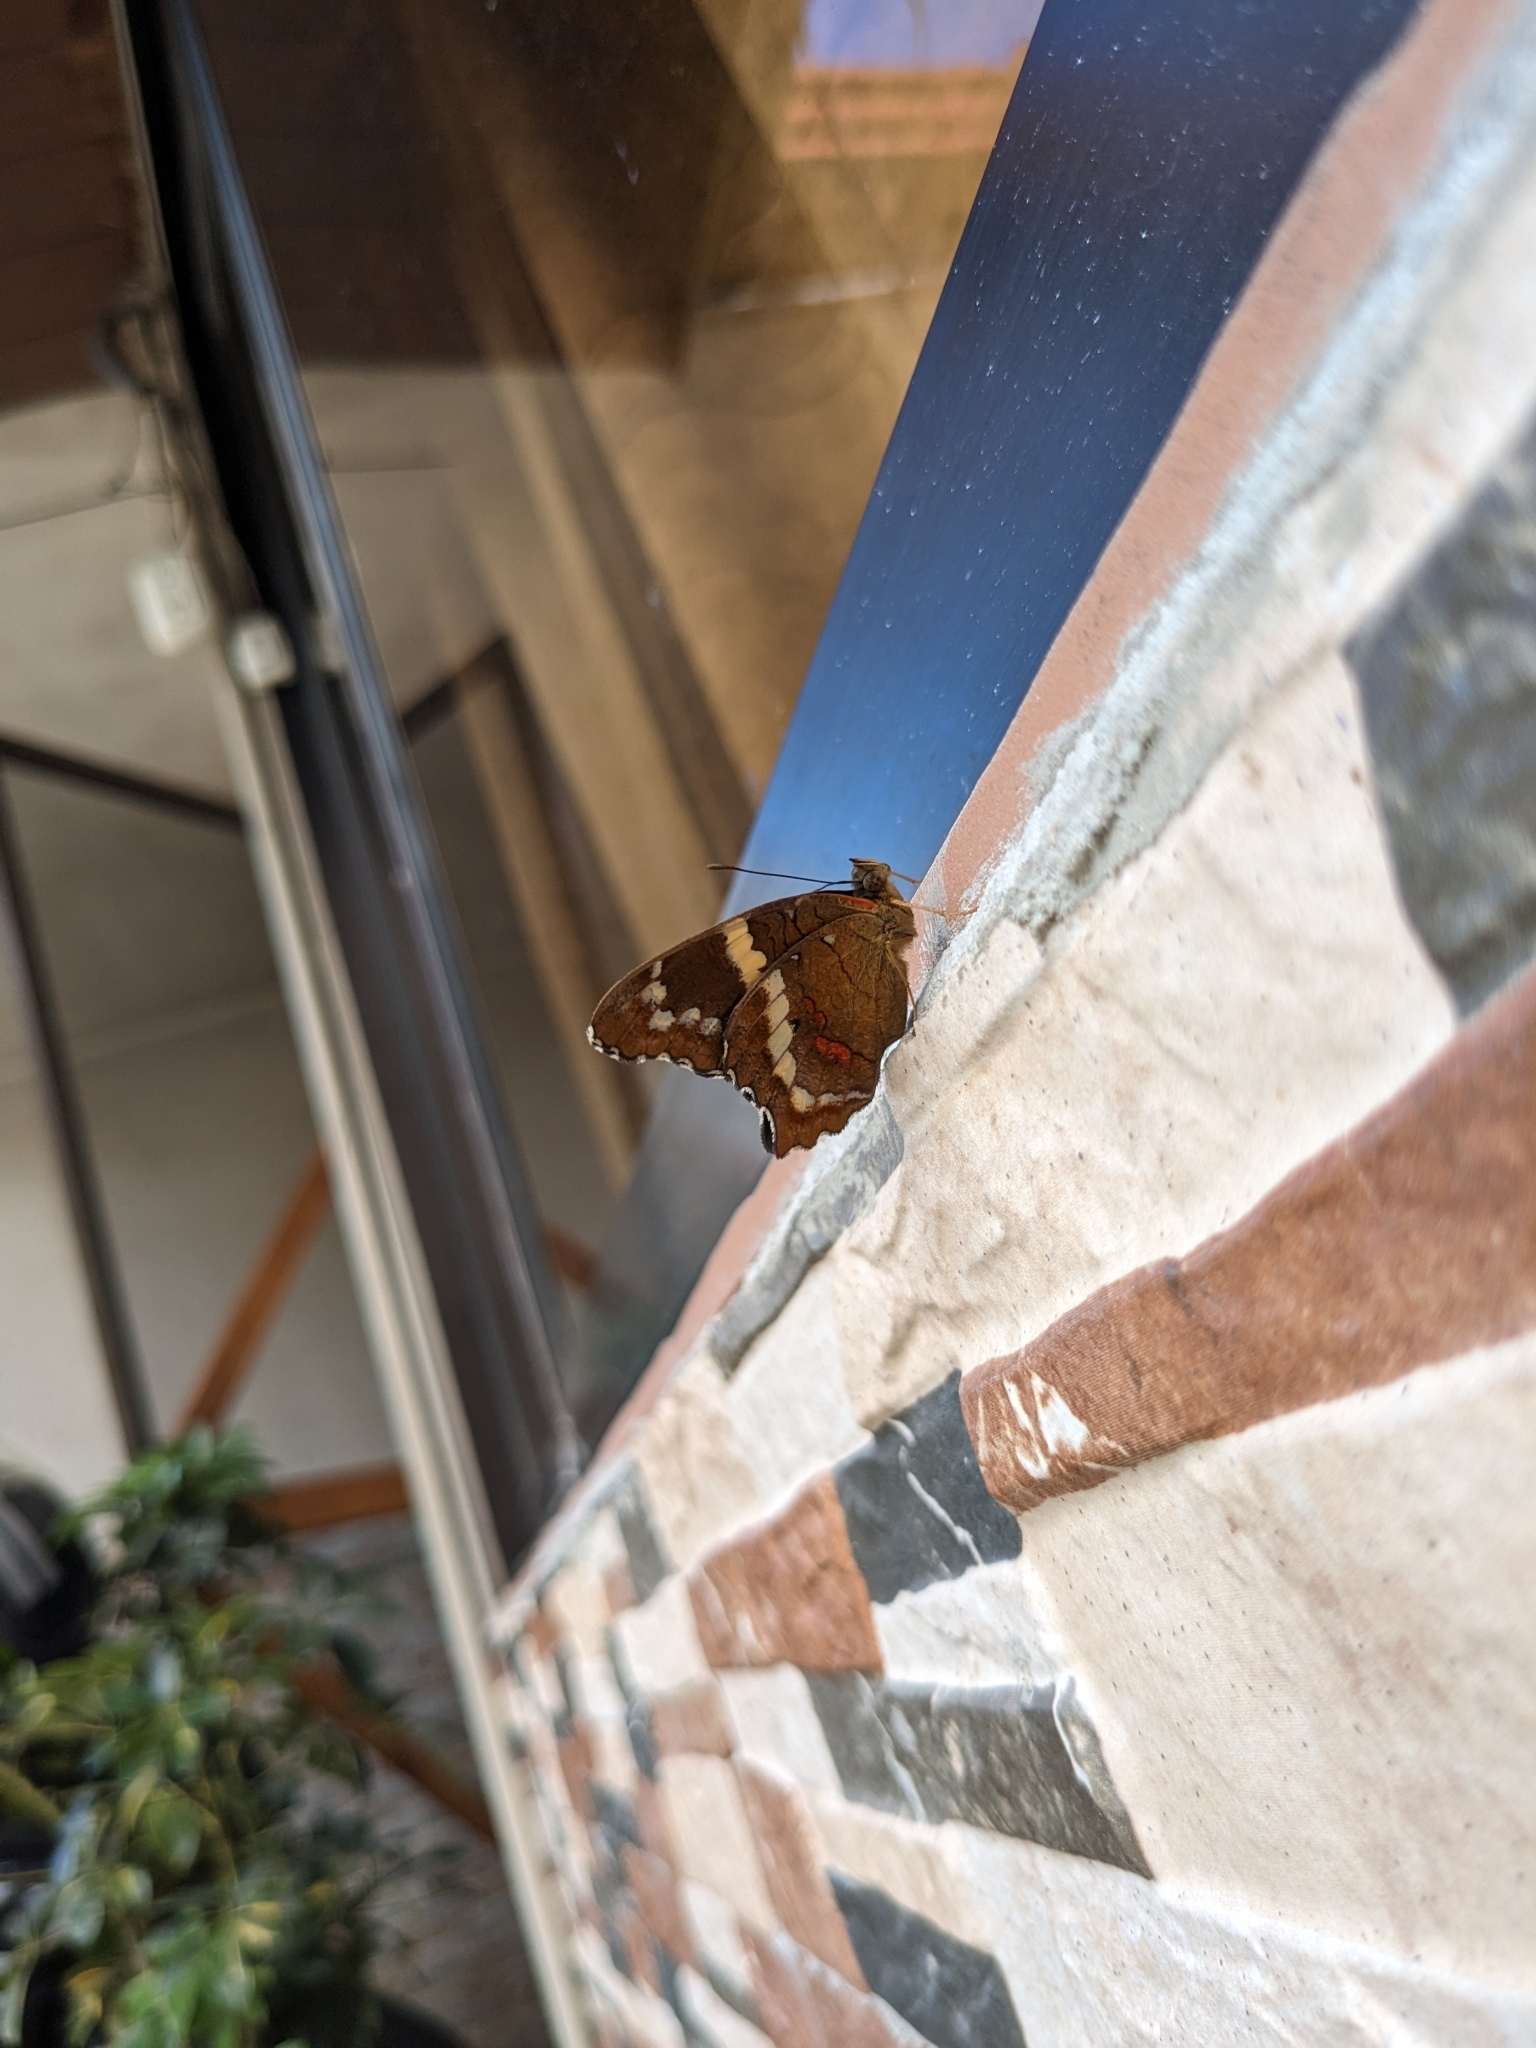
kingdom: Animalia
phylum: Arthropoda
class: Insecta
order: Lepidoptera
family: Nymphalidae
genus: Anartia
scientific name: Anartia fatima
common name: Banded peacock
